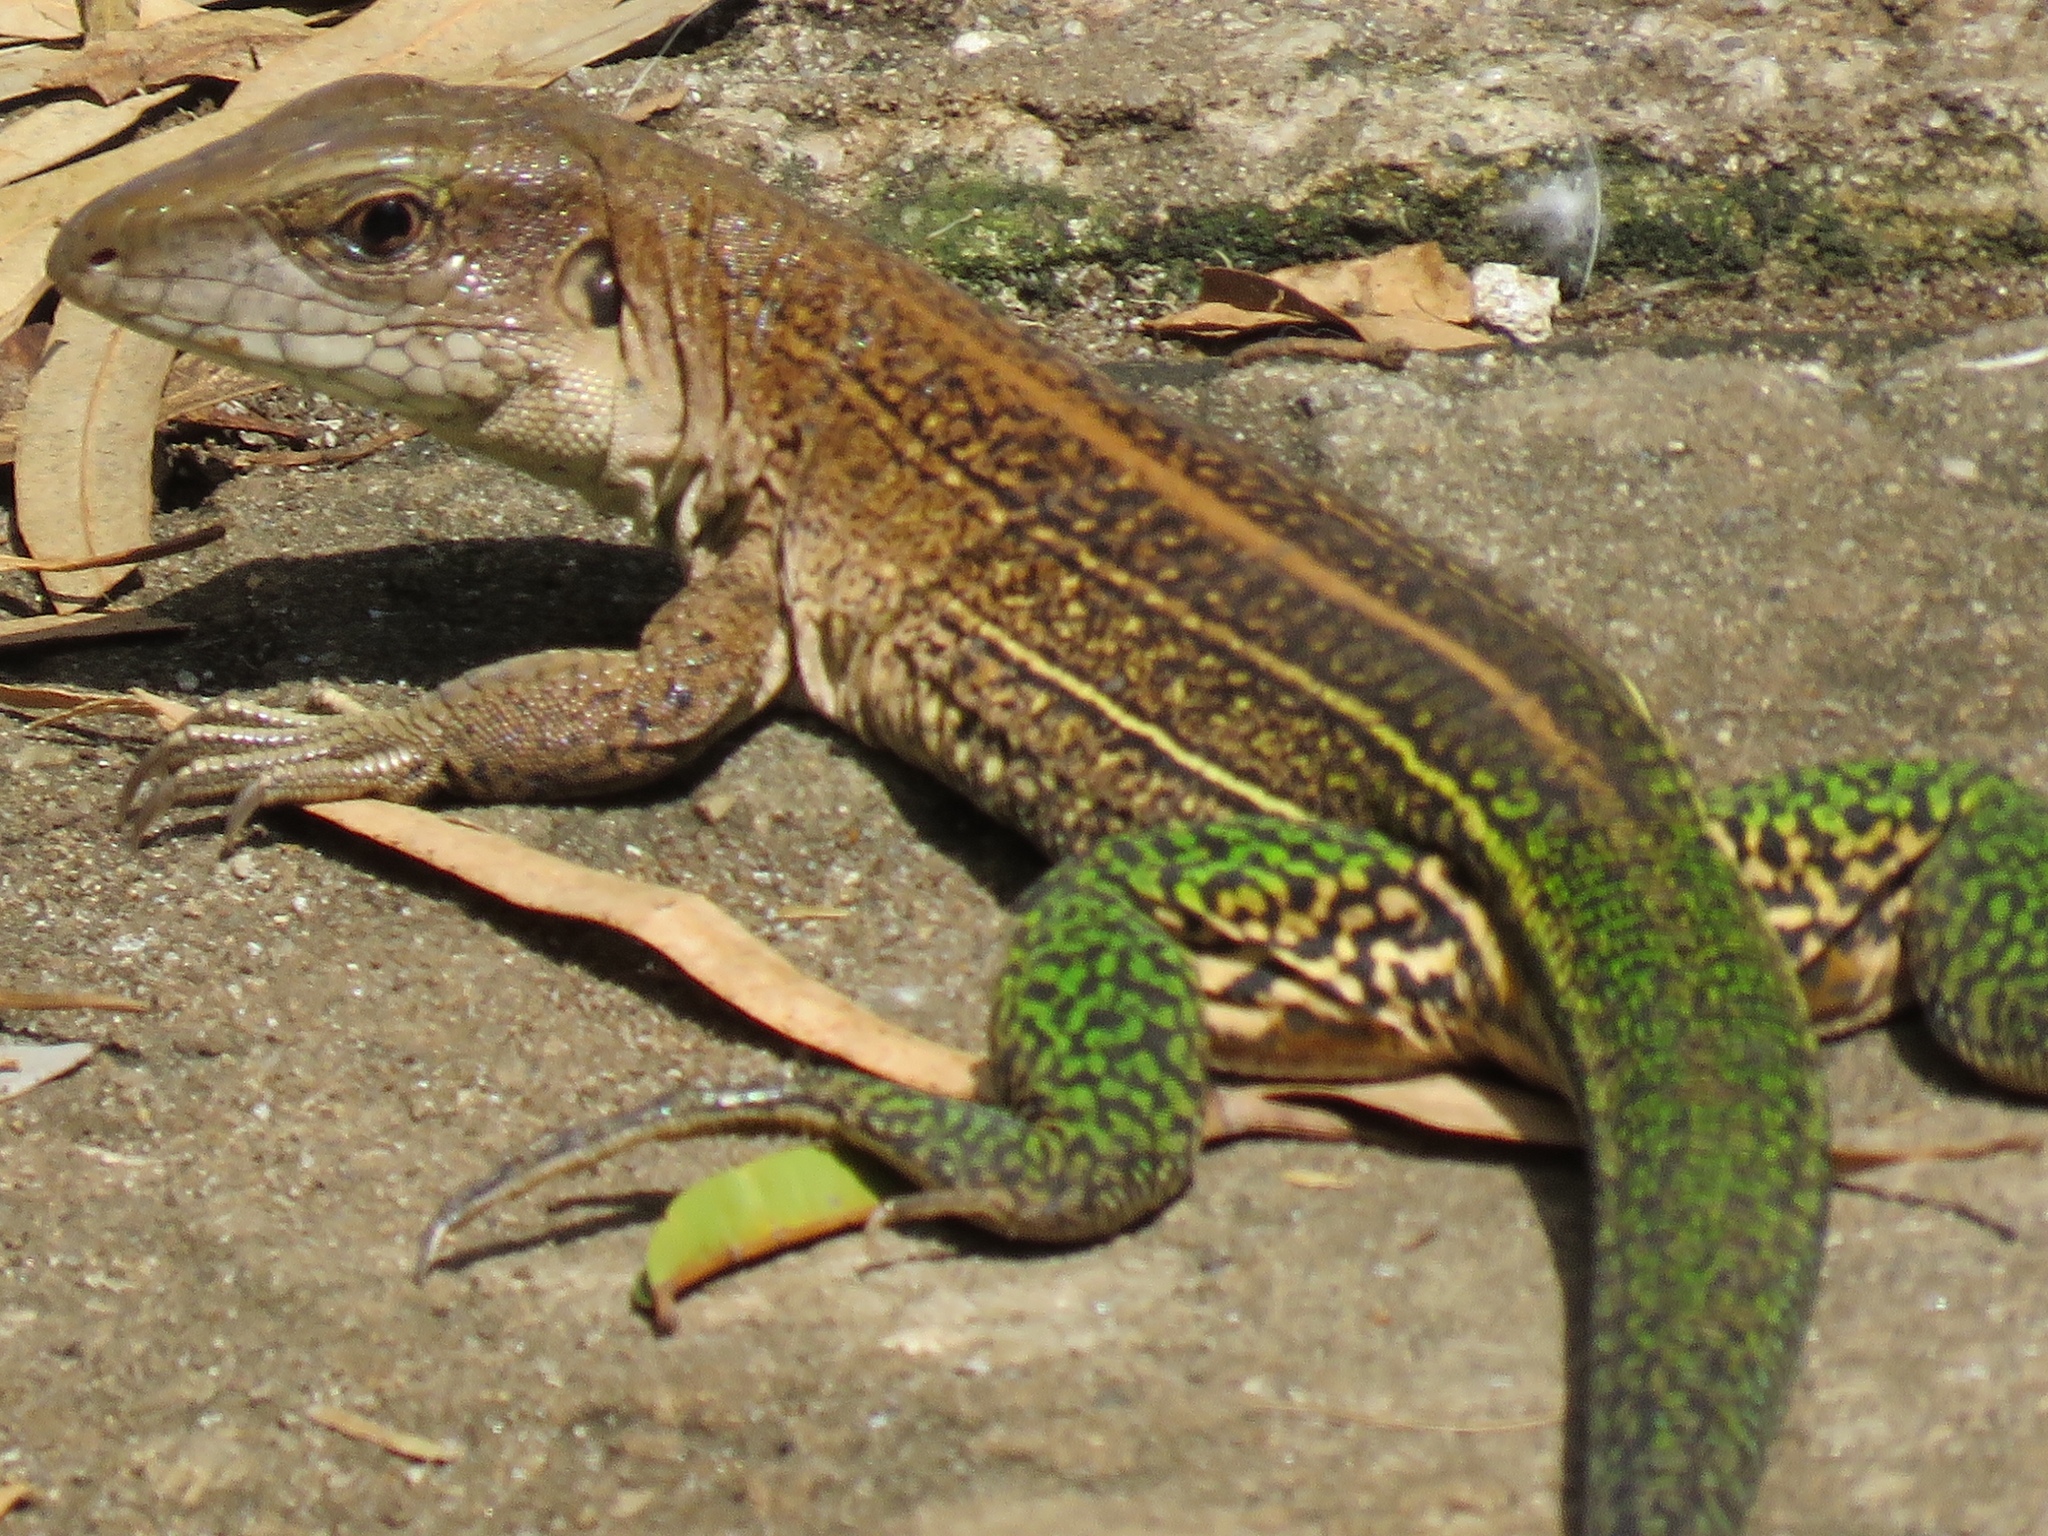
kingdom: Animalia
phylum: Chordata
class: Squamata
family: Teiidae
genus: Ameiva
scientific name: Ameiva praesignis
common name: Giant ameiva
